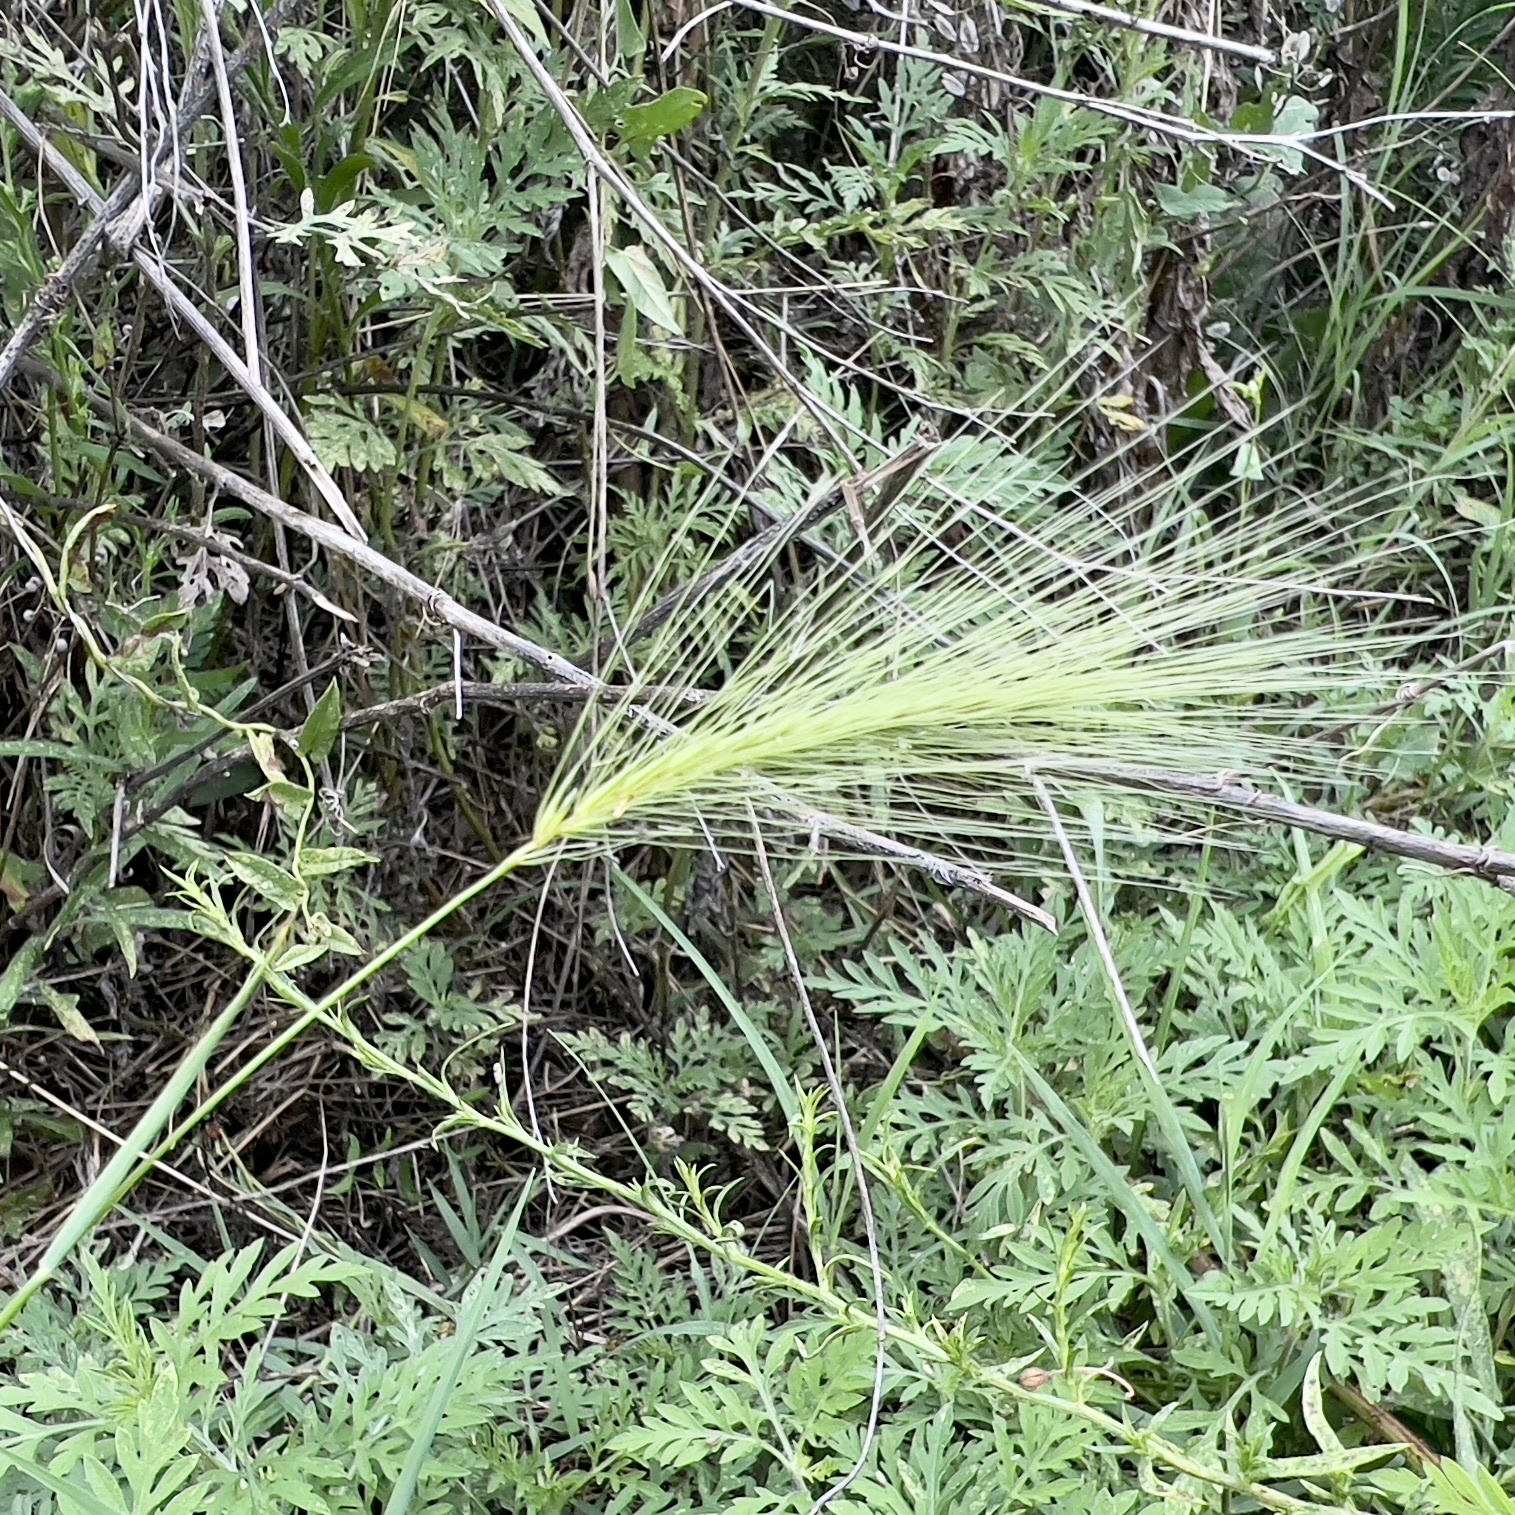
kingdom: Plantae
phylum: Tracheophyta
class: Liliopsida
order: Poales
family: Poaceae
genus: Hordeum
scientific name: Hordeum jubatum
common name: Foxtail barley
